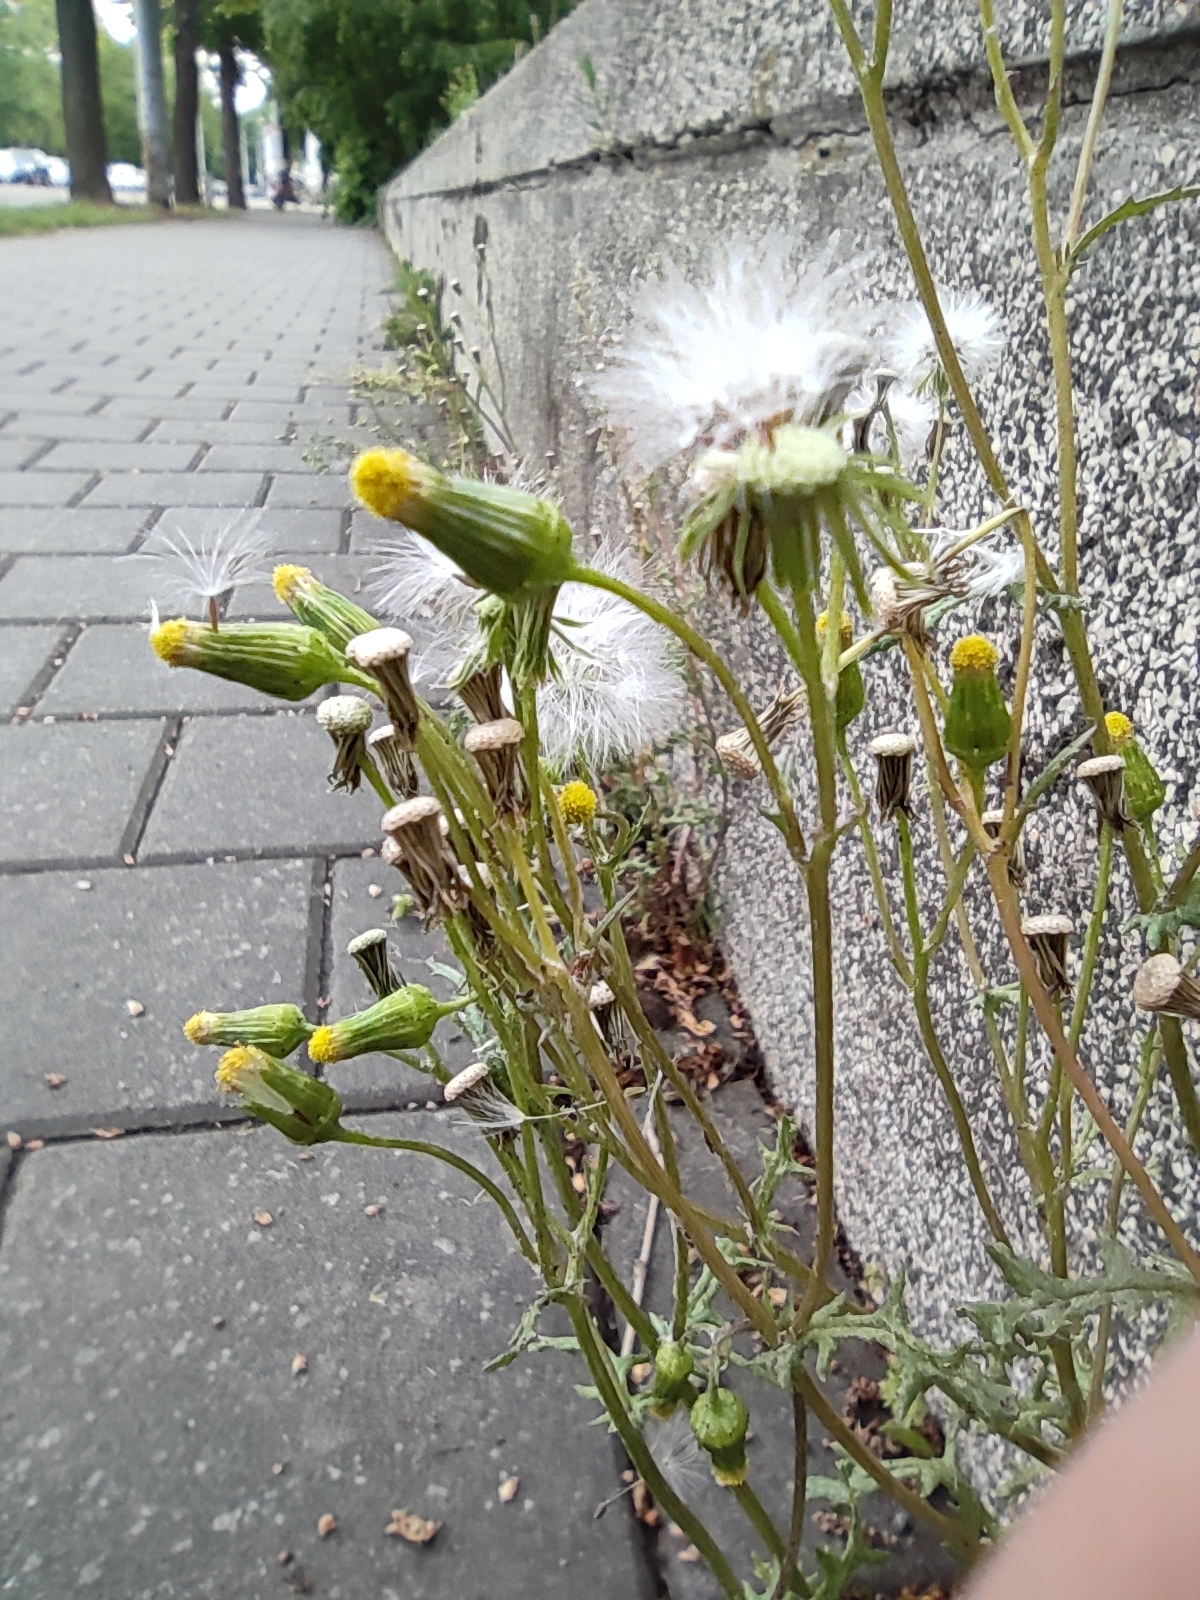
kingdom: Plantae
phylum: Tracheophyta
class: Magnoliopsida
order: Asterales
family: Asteraceae
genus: Senecio
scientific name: Senecio vulgaris
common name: Old-man-in-the-spring
